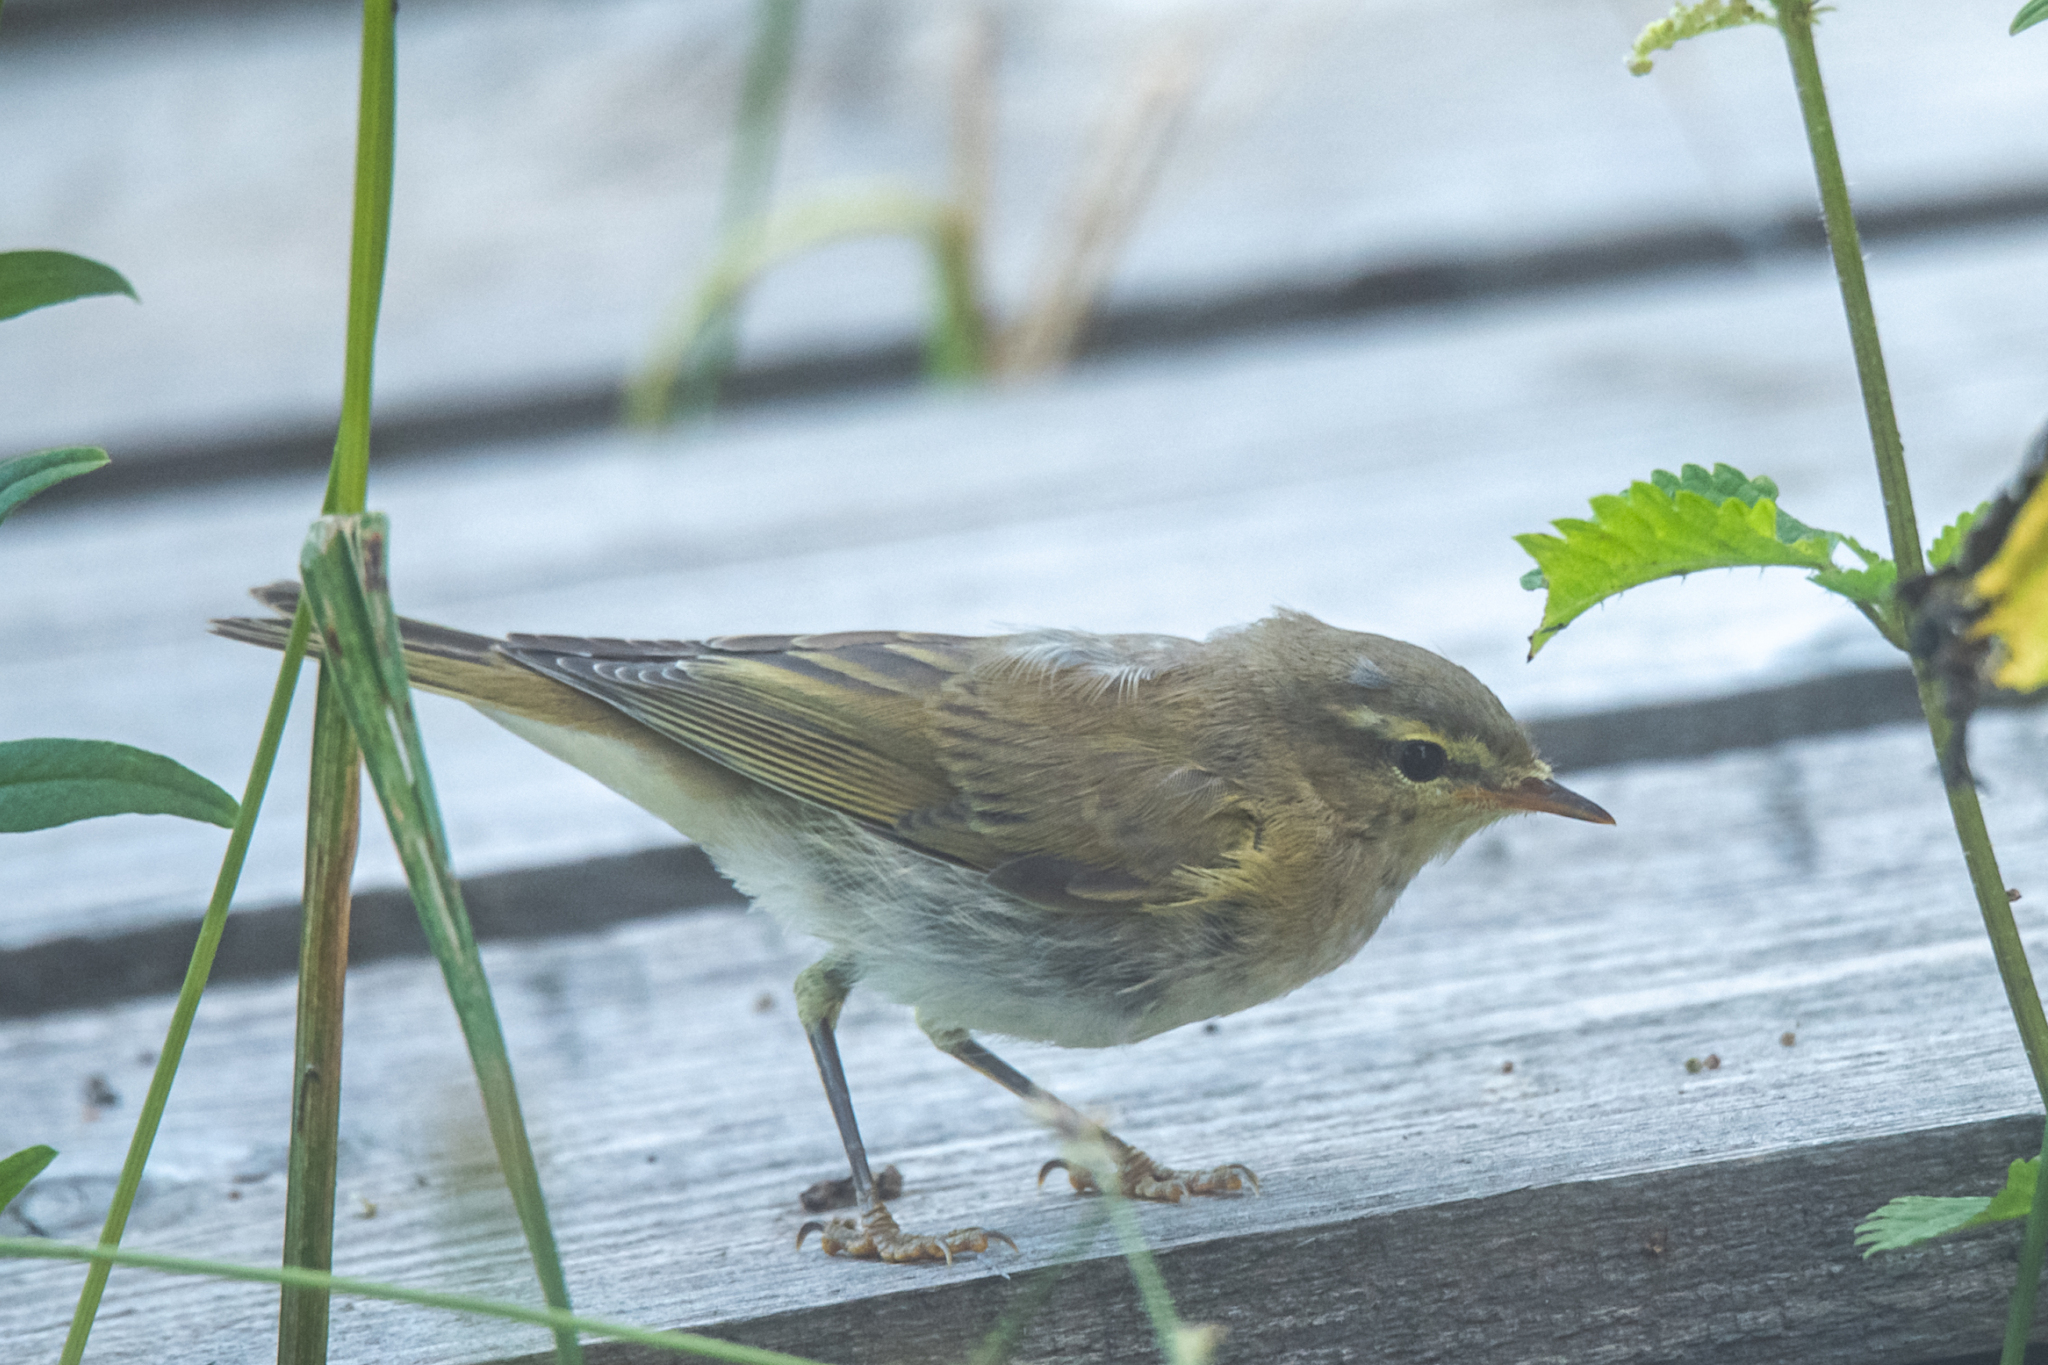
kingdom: Animalia
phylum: Chordata
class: Aves
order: Passeriformes
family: Phylloscopidae
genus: Phylloscopus
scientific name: Phylloscopus trochilus
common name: Willow warbler
